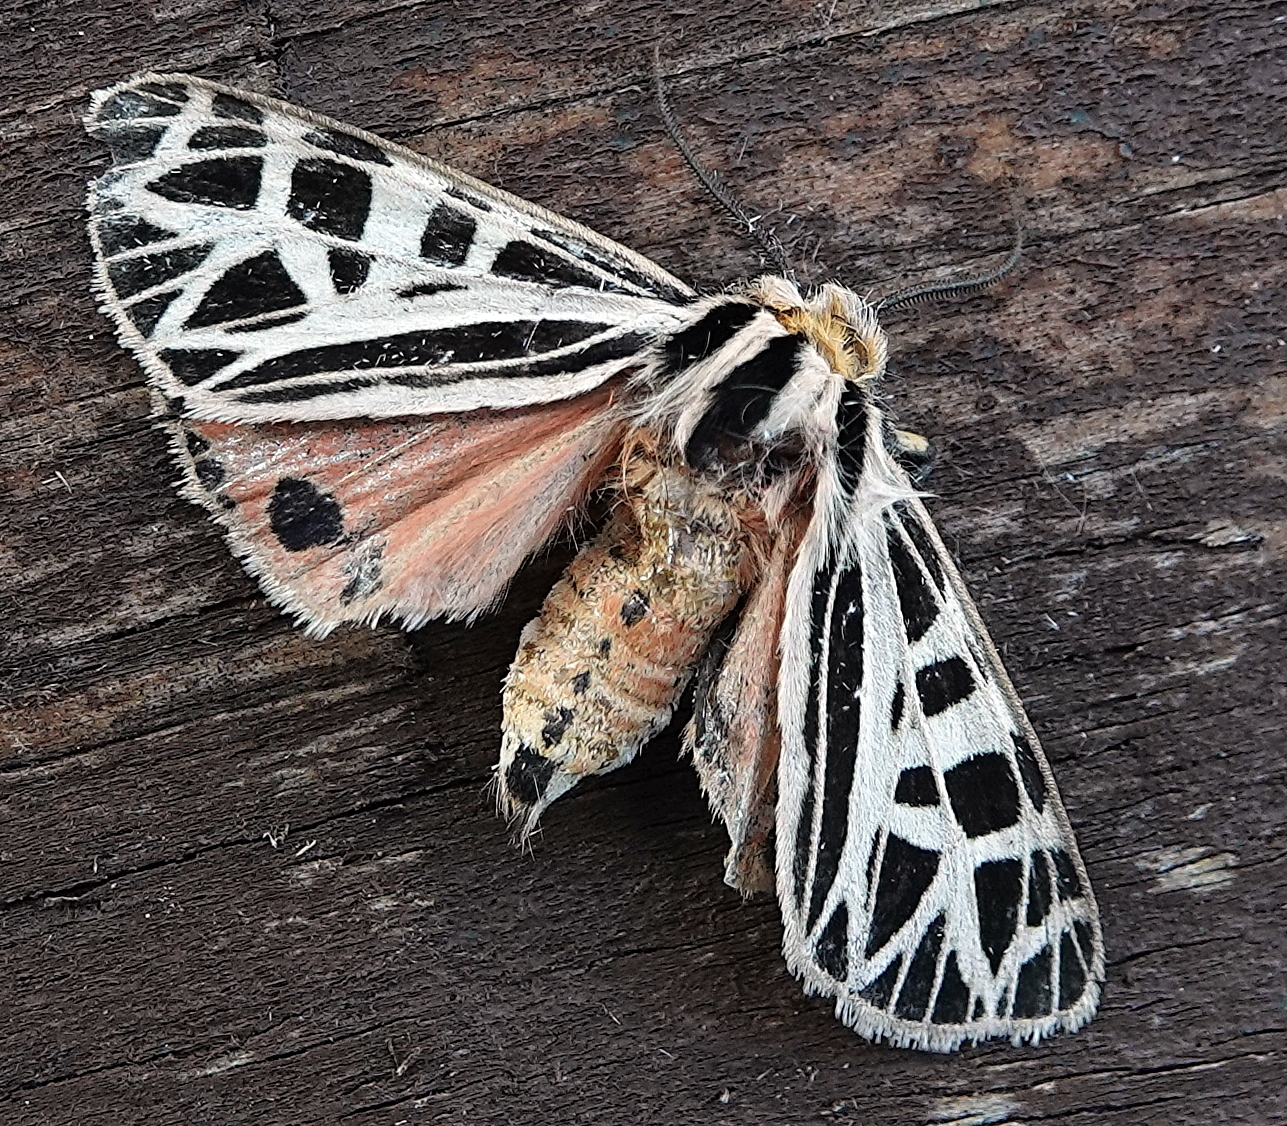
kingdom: Animalia
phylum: Arthropoda
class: Insecta
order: Lepidoptera
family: Erebidae
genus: Grammia
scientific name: Grammia parthenice
